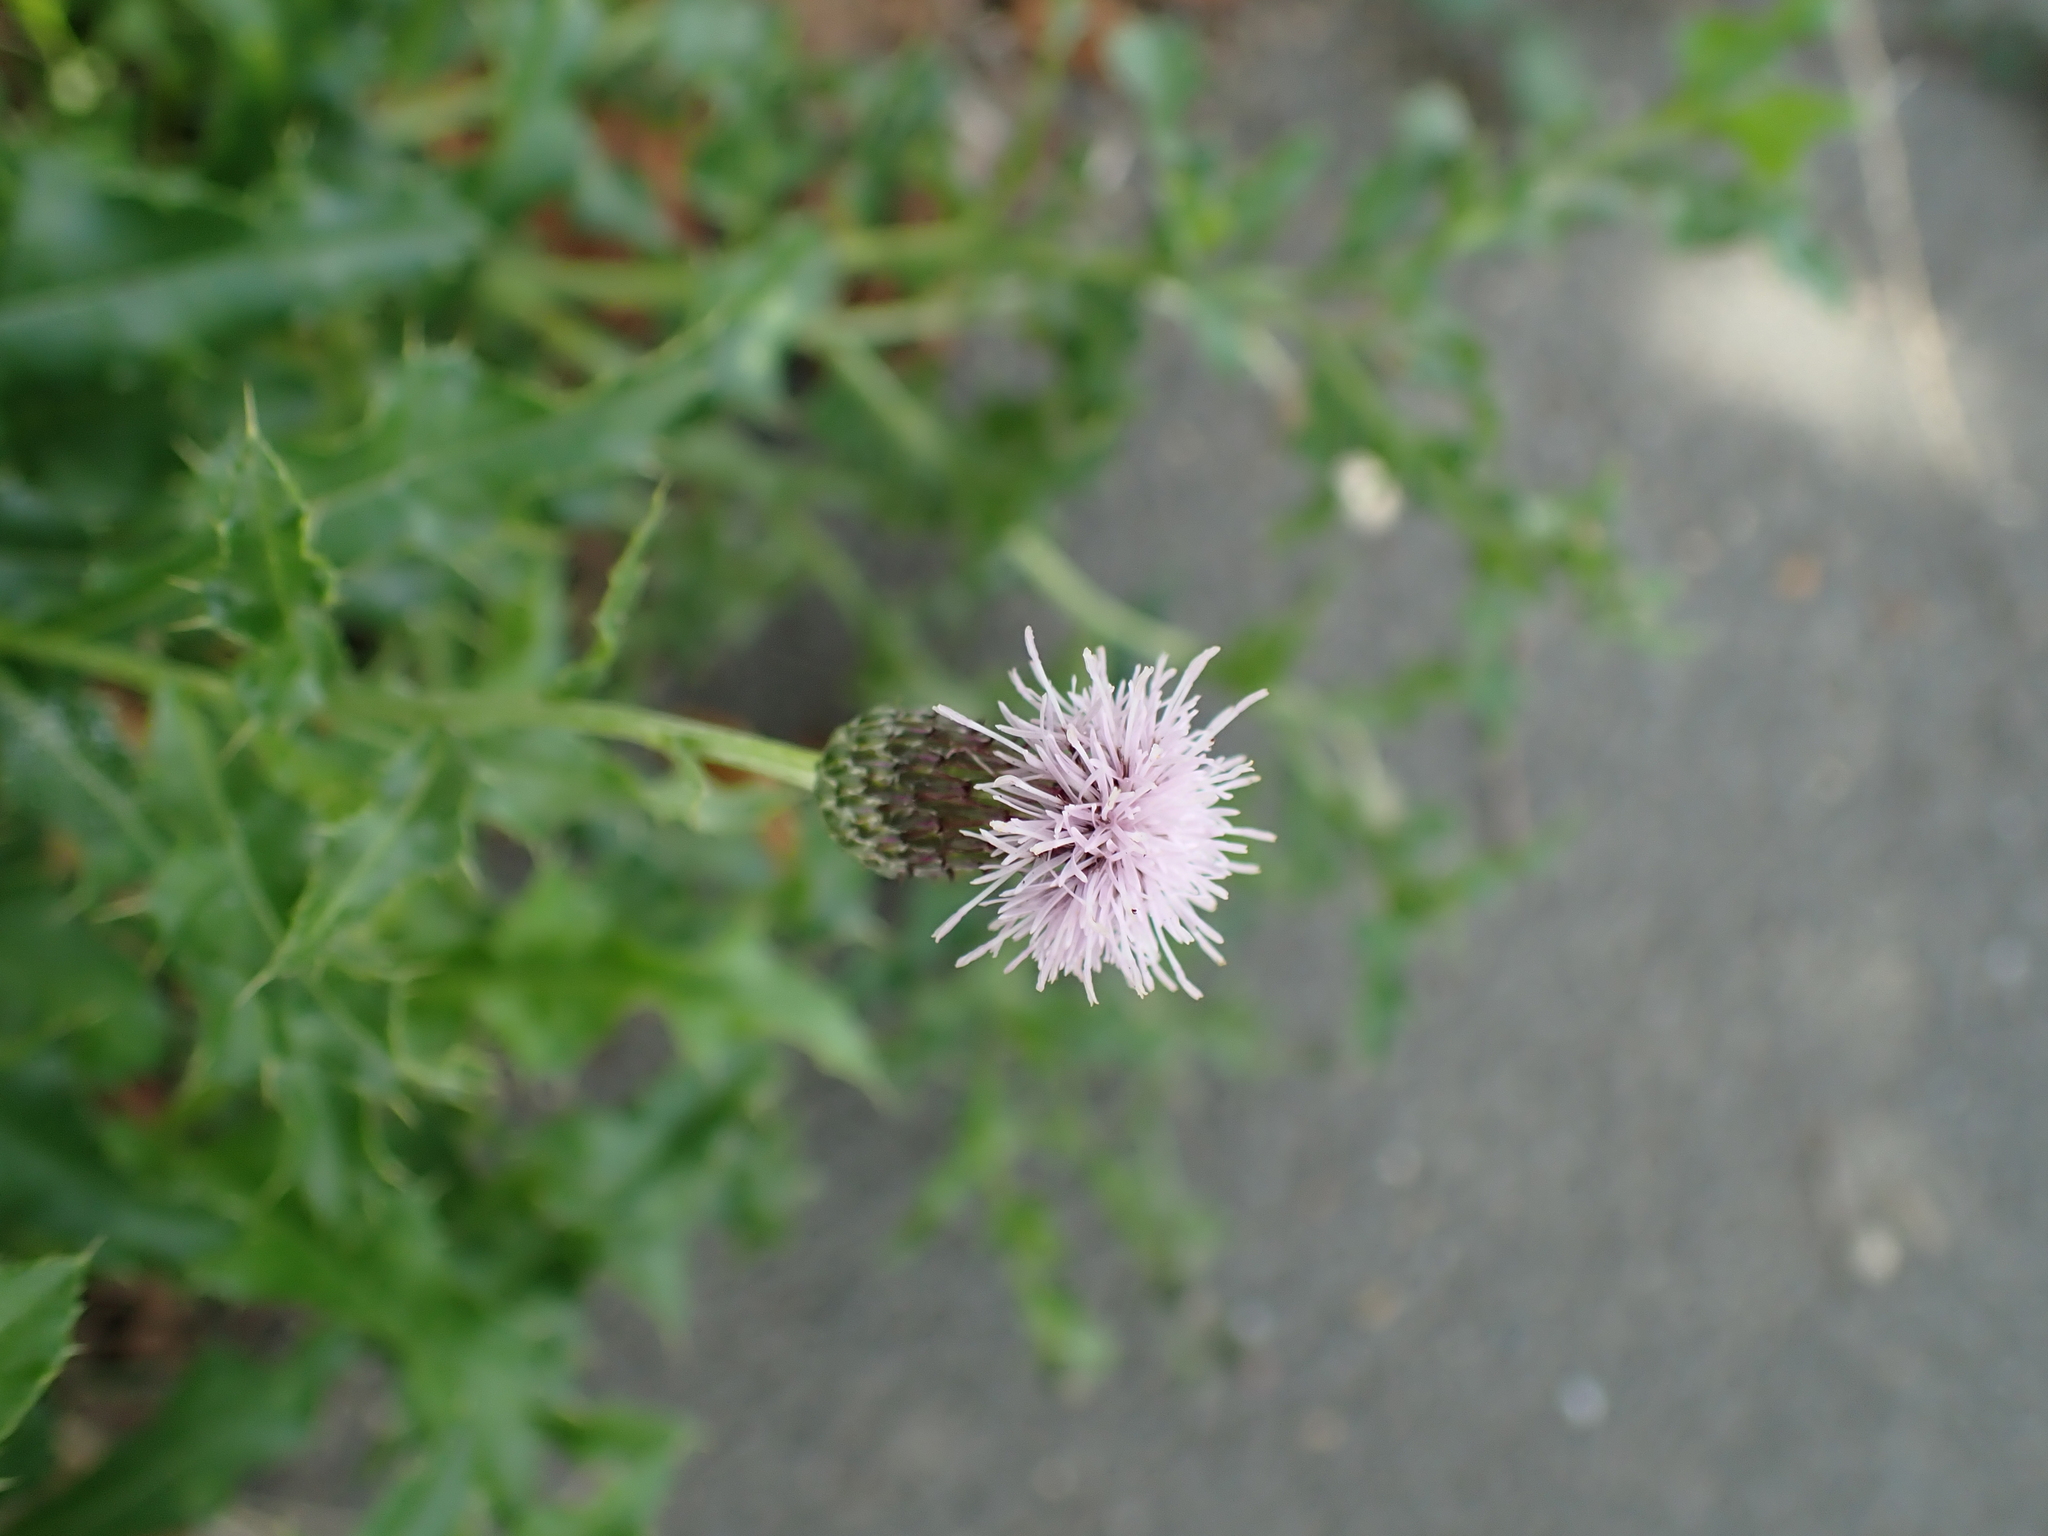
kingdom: Plantae
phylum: Tracheophyta
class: Magnoliopsida
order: Asterales
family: Asteraceae
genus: Cirsium
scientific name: Cirsium arvense
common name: Creeping thistle
